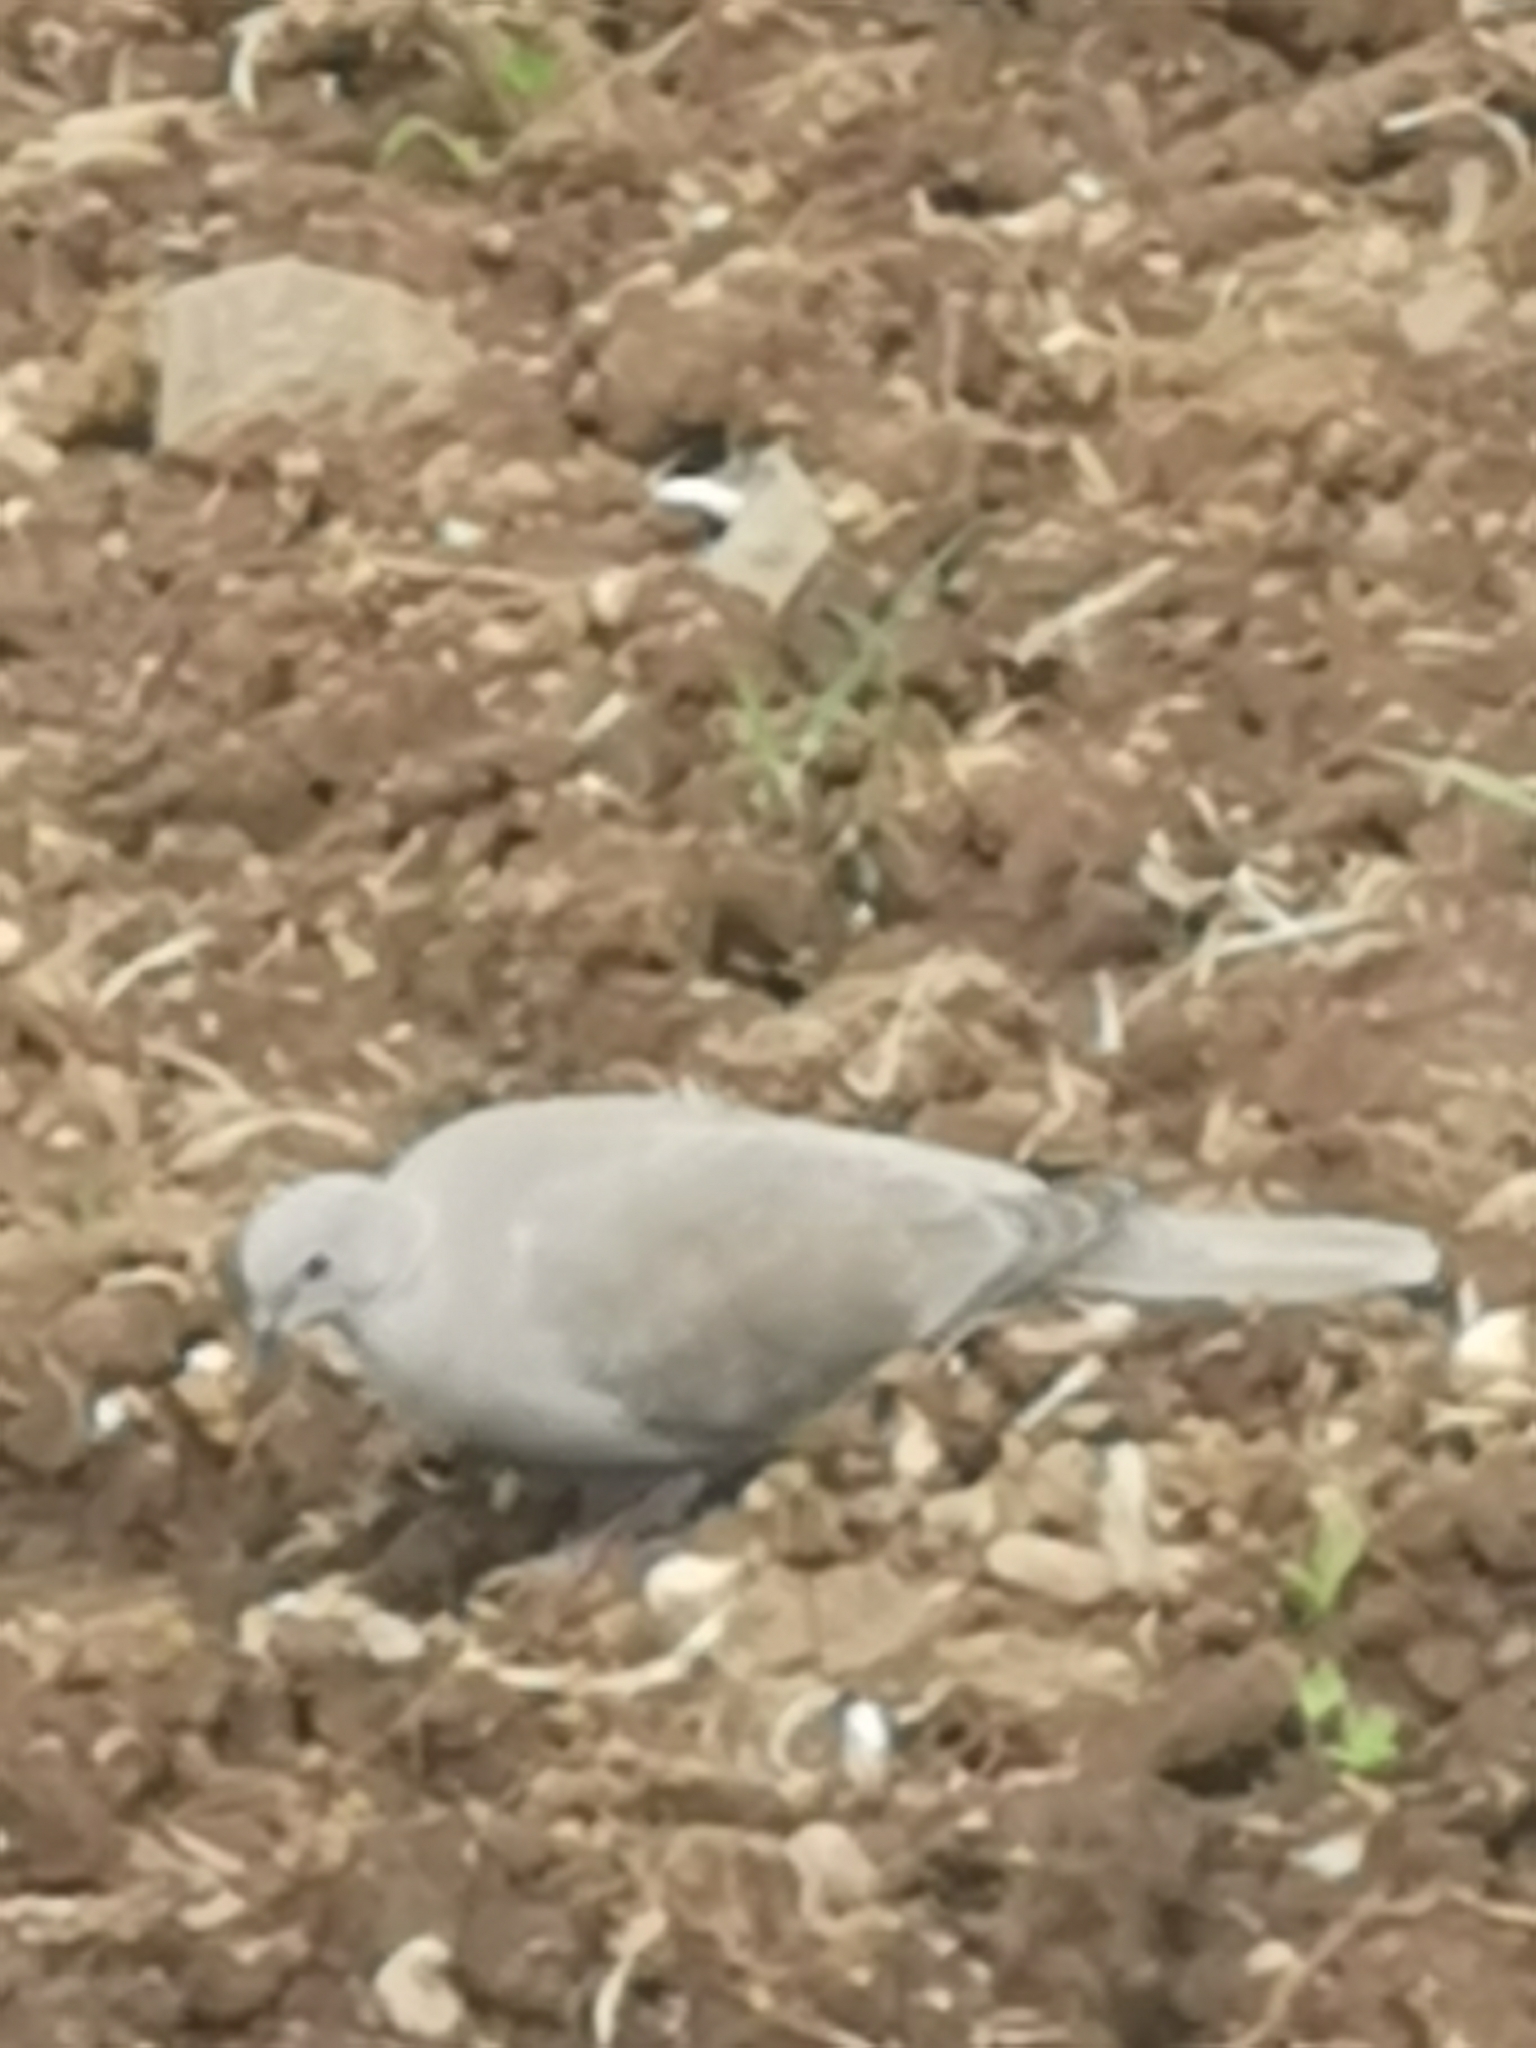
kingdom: Animalia
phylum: Chordata
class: Aves
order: Columbiformes
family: Columbidae
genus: Streptopelia
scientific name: Streptopelia decaocto
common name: Eurasian collared dove
